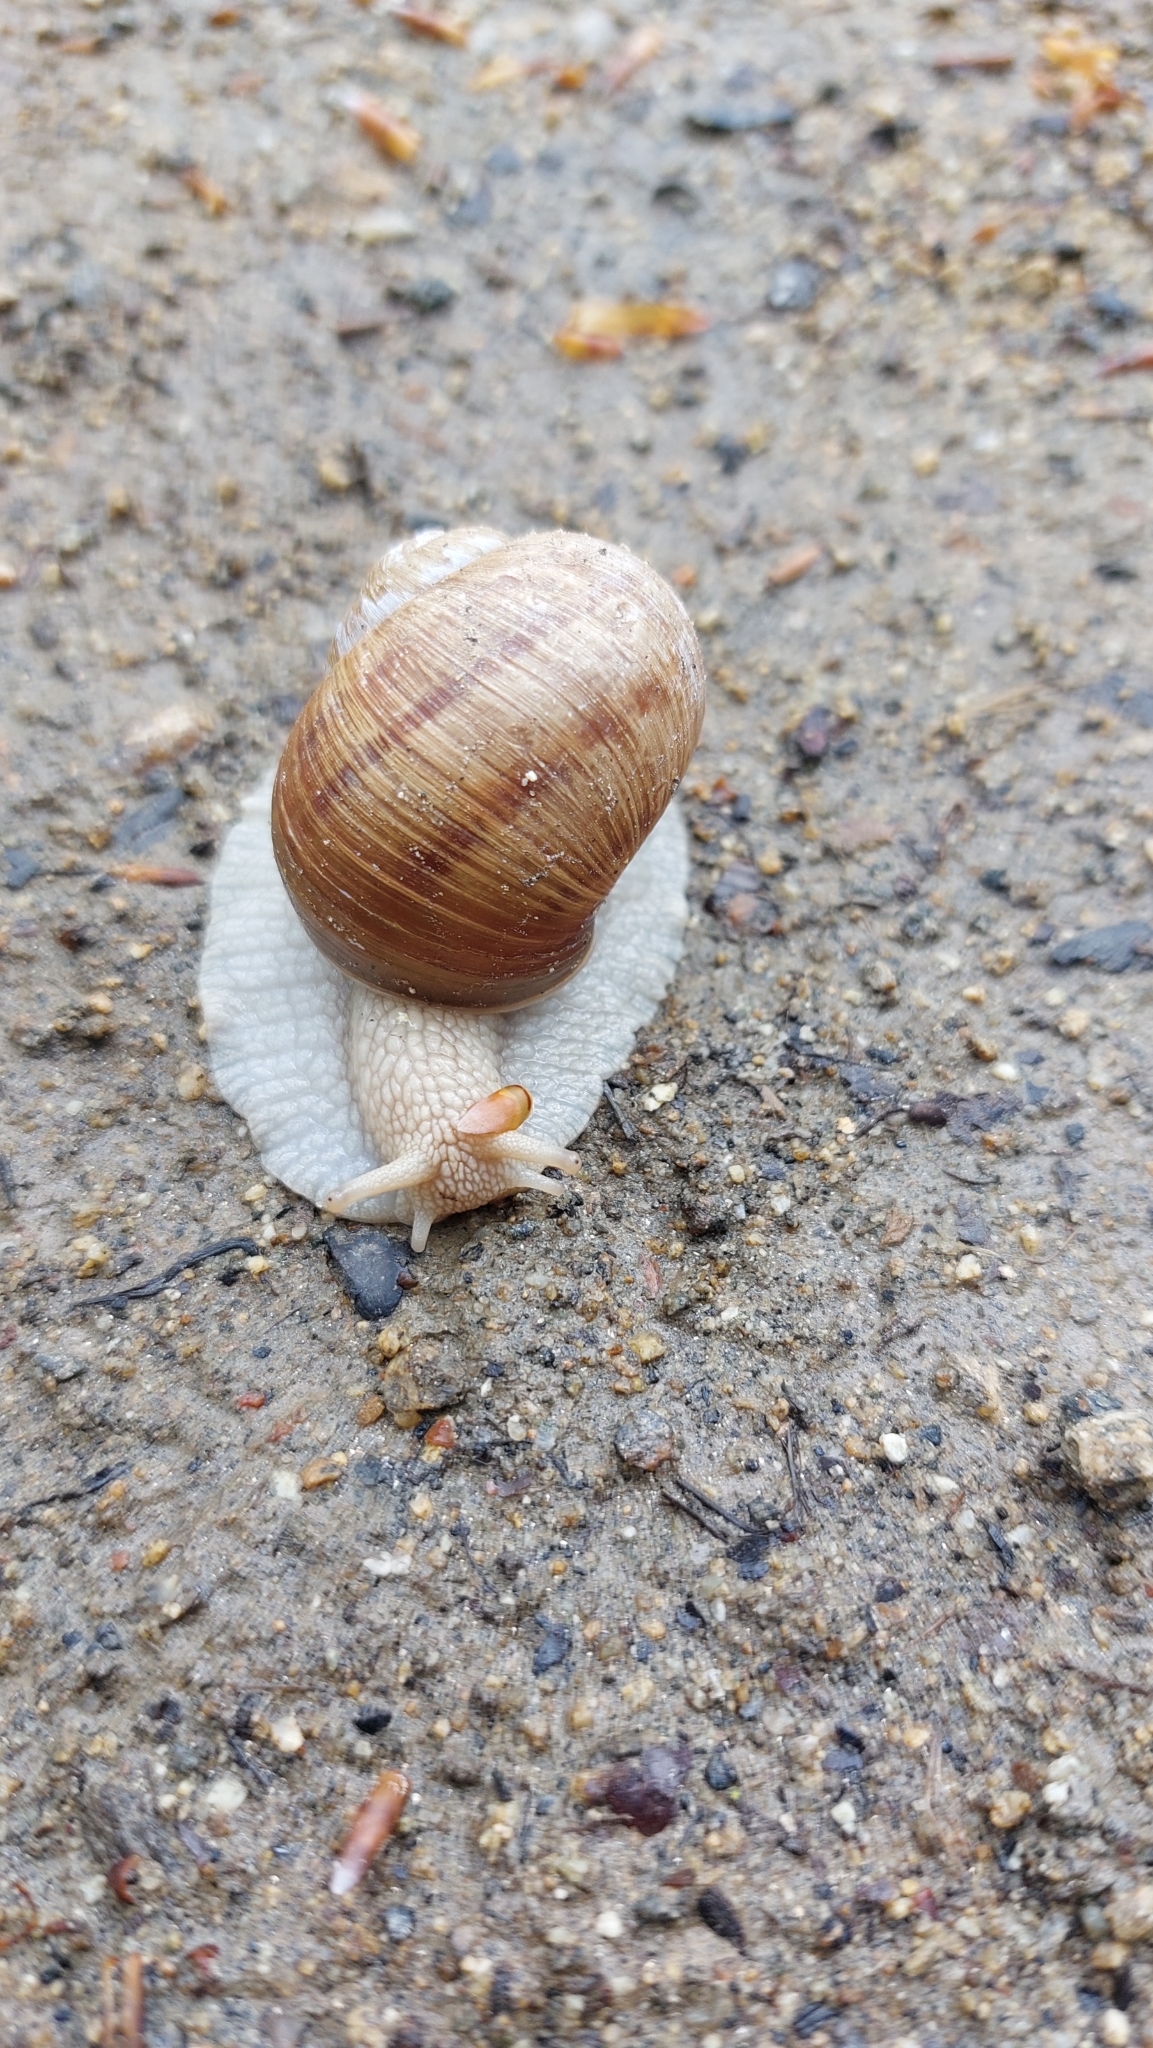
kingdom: Animalia
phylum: Mollusca
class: Gastropoda
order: Stylommatophora
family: Helicidae
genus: Helix
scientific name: Helix pomatia
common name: Roman snail
